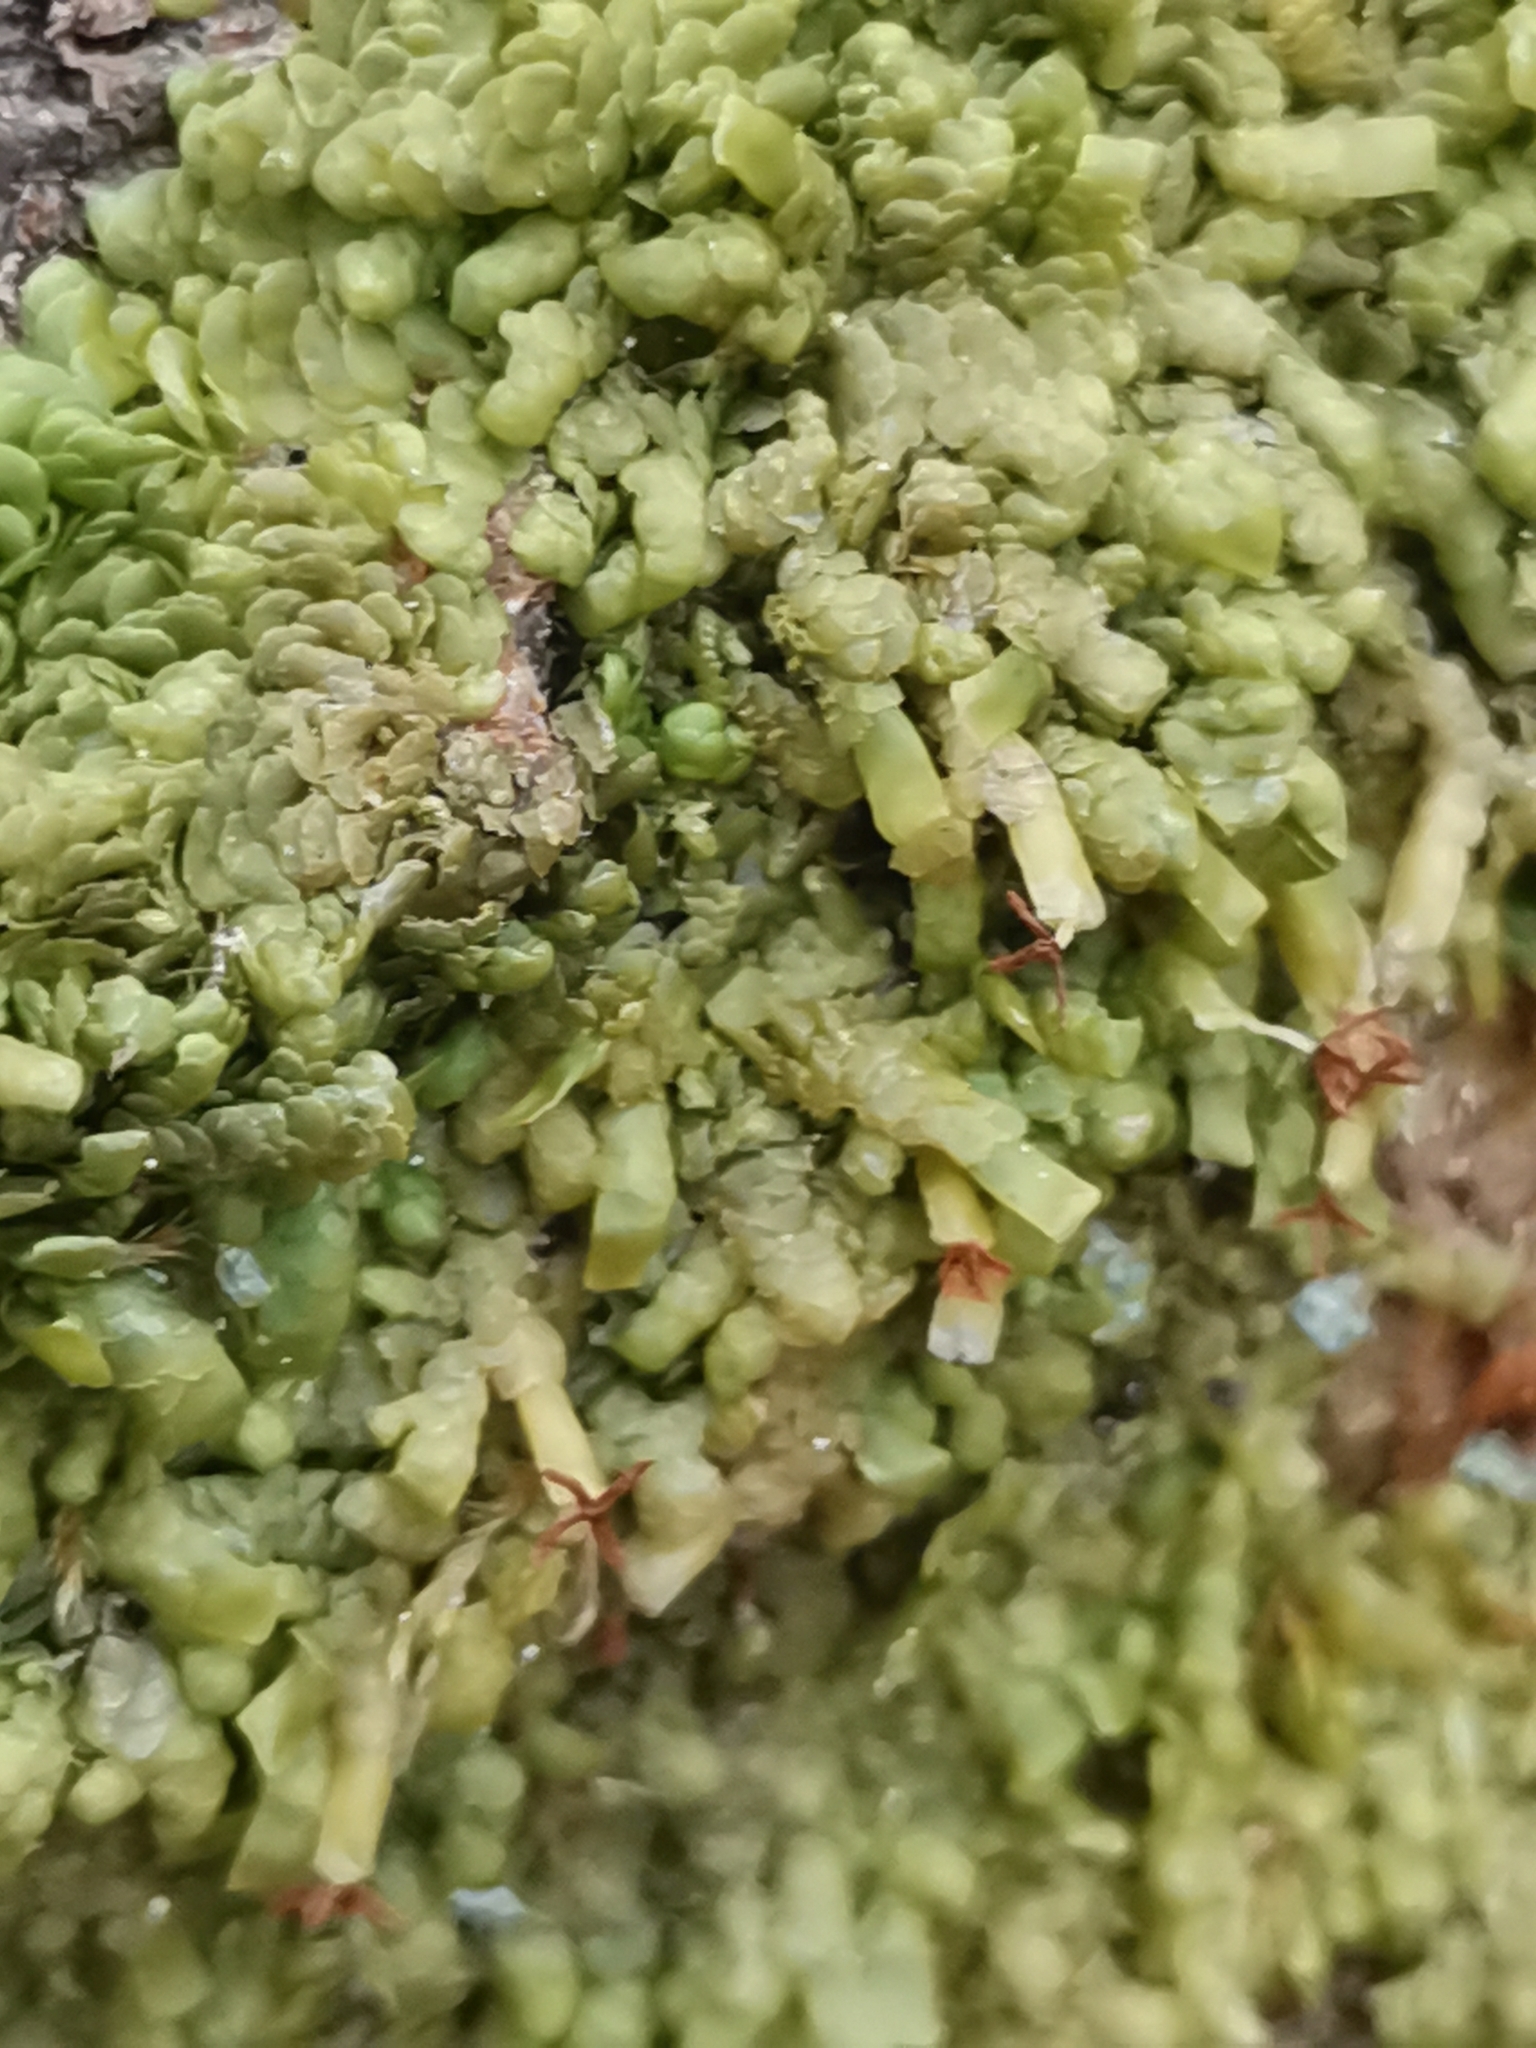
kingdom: Plantae
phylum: Marchantiophyta
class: Jungermanniopsida
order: Porellales
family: Radulaceae
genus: Radula
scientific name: Radula complanata
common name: Flat-leaved scalewort
